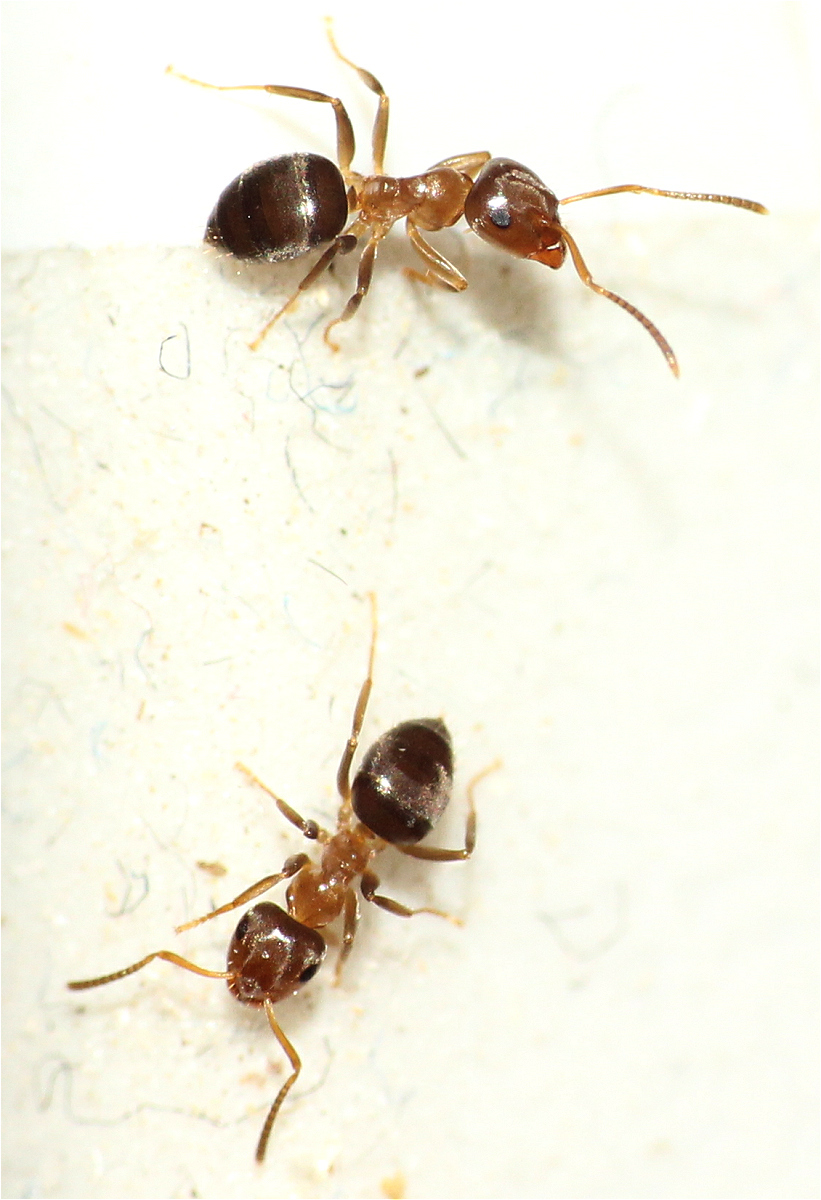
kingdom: Animalia
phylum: Arthropoda
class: Insecta
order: Hymenoptera
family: Formicidae
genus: Lasius
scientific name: Lasius brunneus
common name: Brown ant
